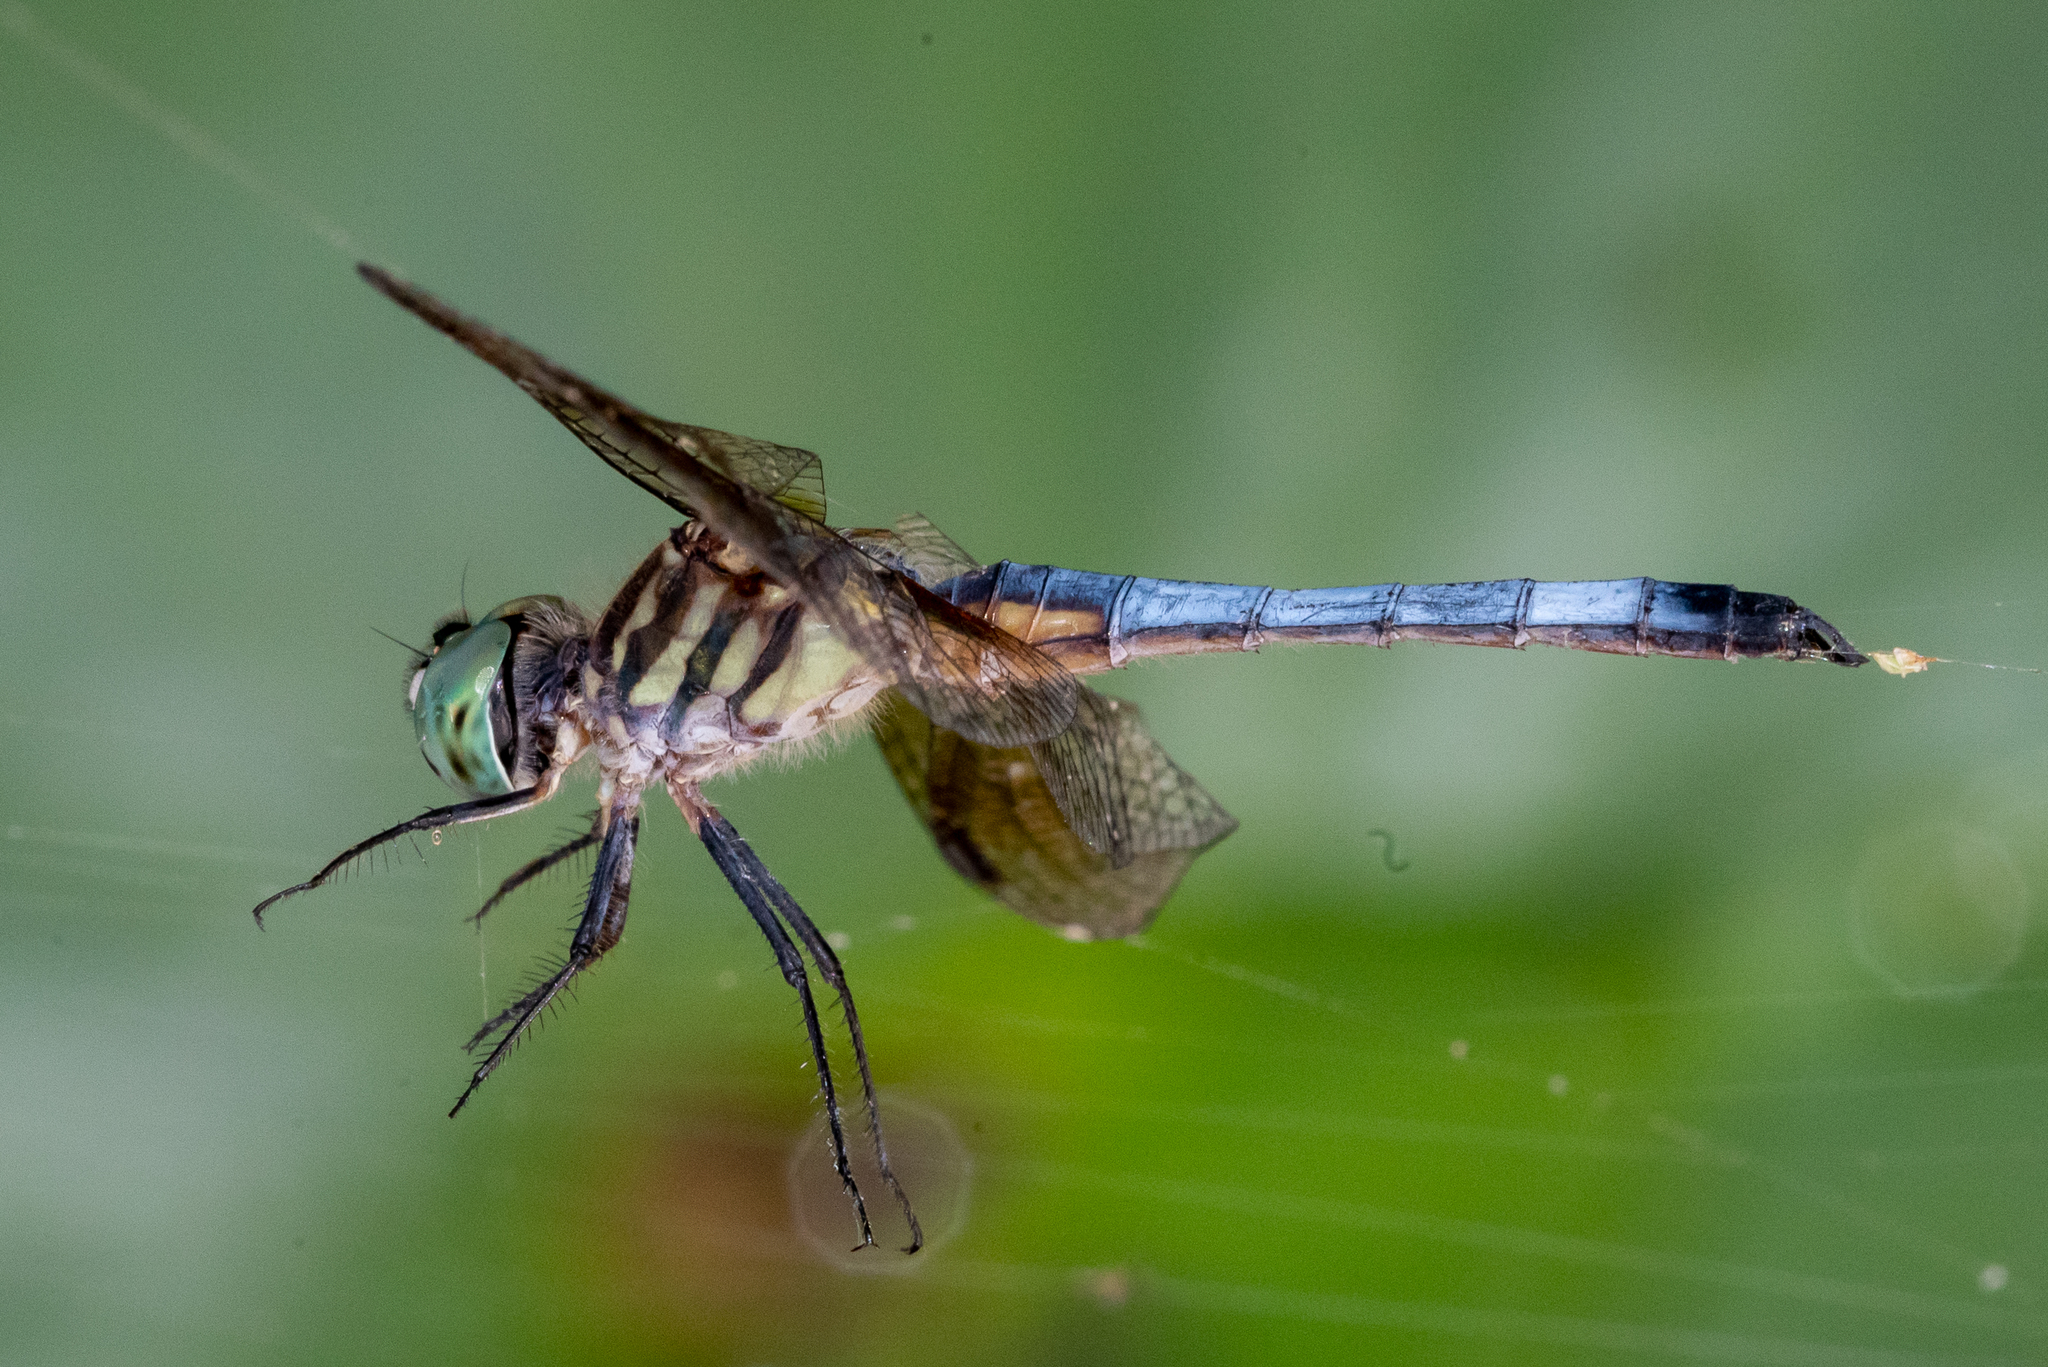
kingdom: Animalia
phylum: Arthropoda
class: Insecta
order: Odonata
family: Libellulidae
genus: Pachydiplax
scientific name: Pachydiplax longipennis
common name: Blue dasher
